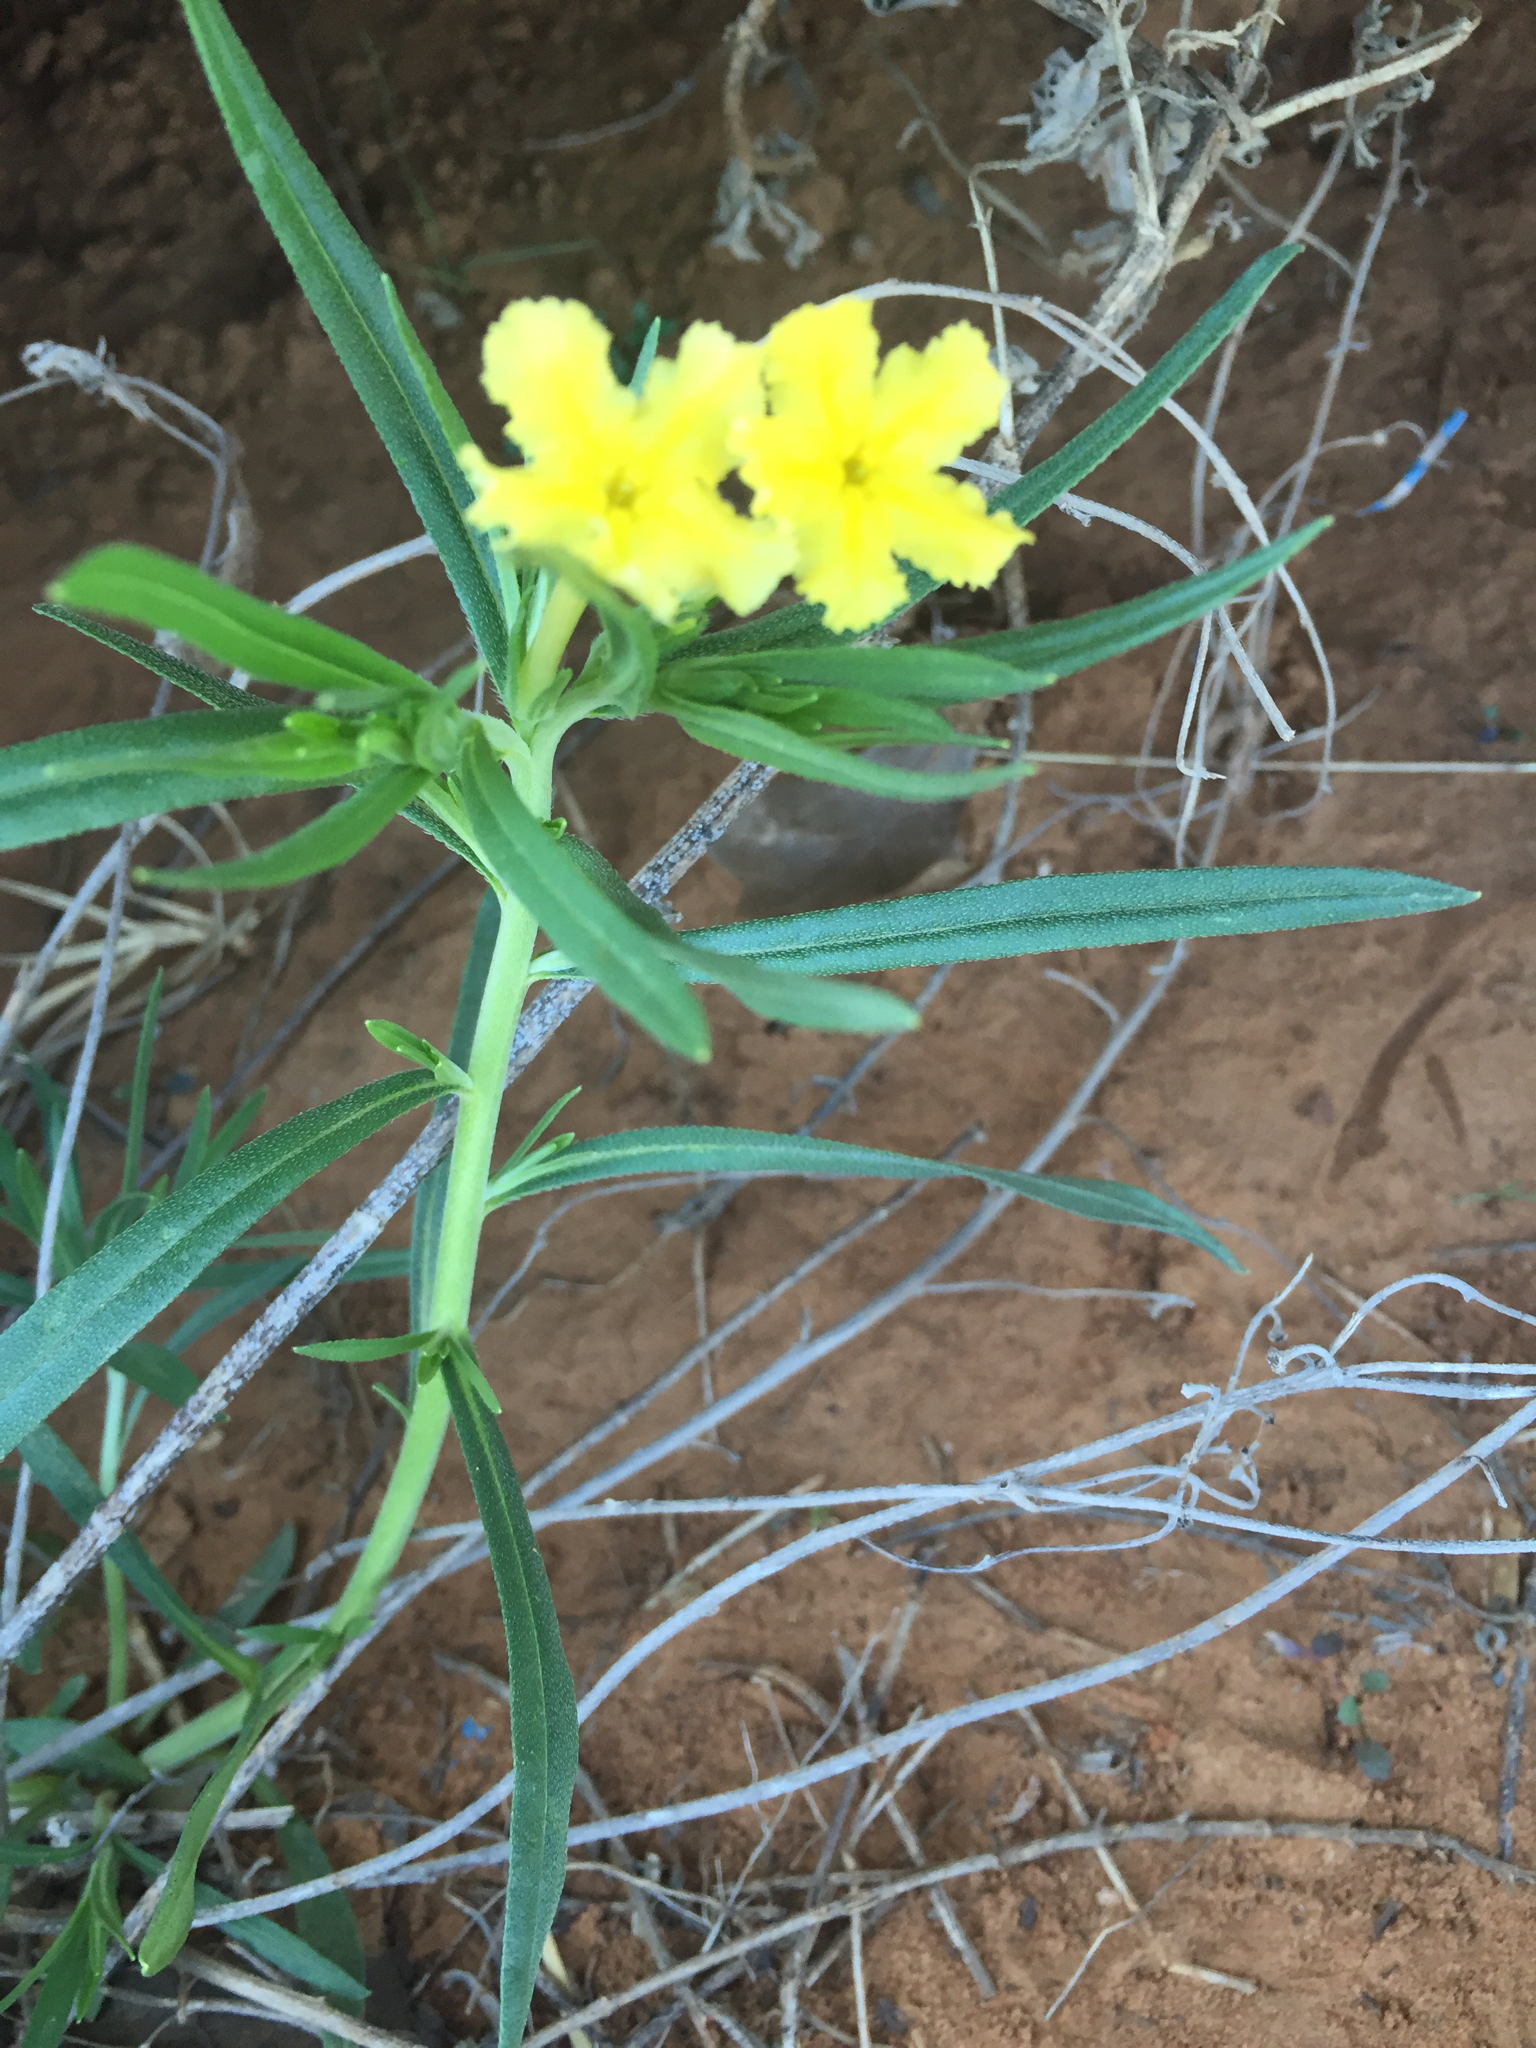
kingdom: Plantae
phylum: Tracheophyta
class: Magnoliopsida
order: Boraginales
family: Boraginaceae
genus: Lithospermum
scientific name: Lithospermum incisum
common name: Fringed gromwell
